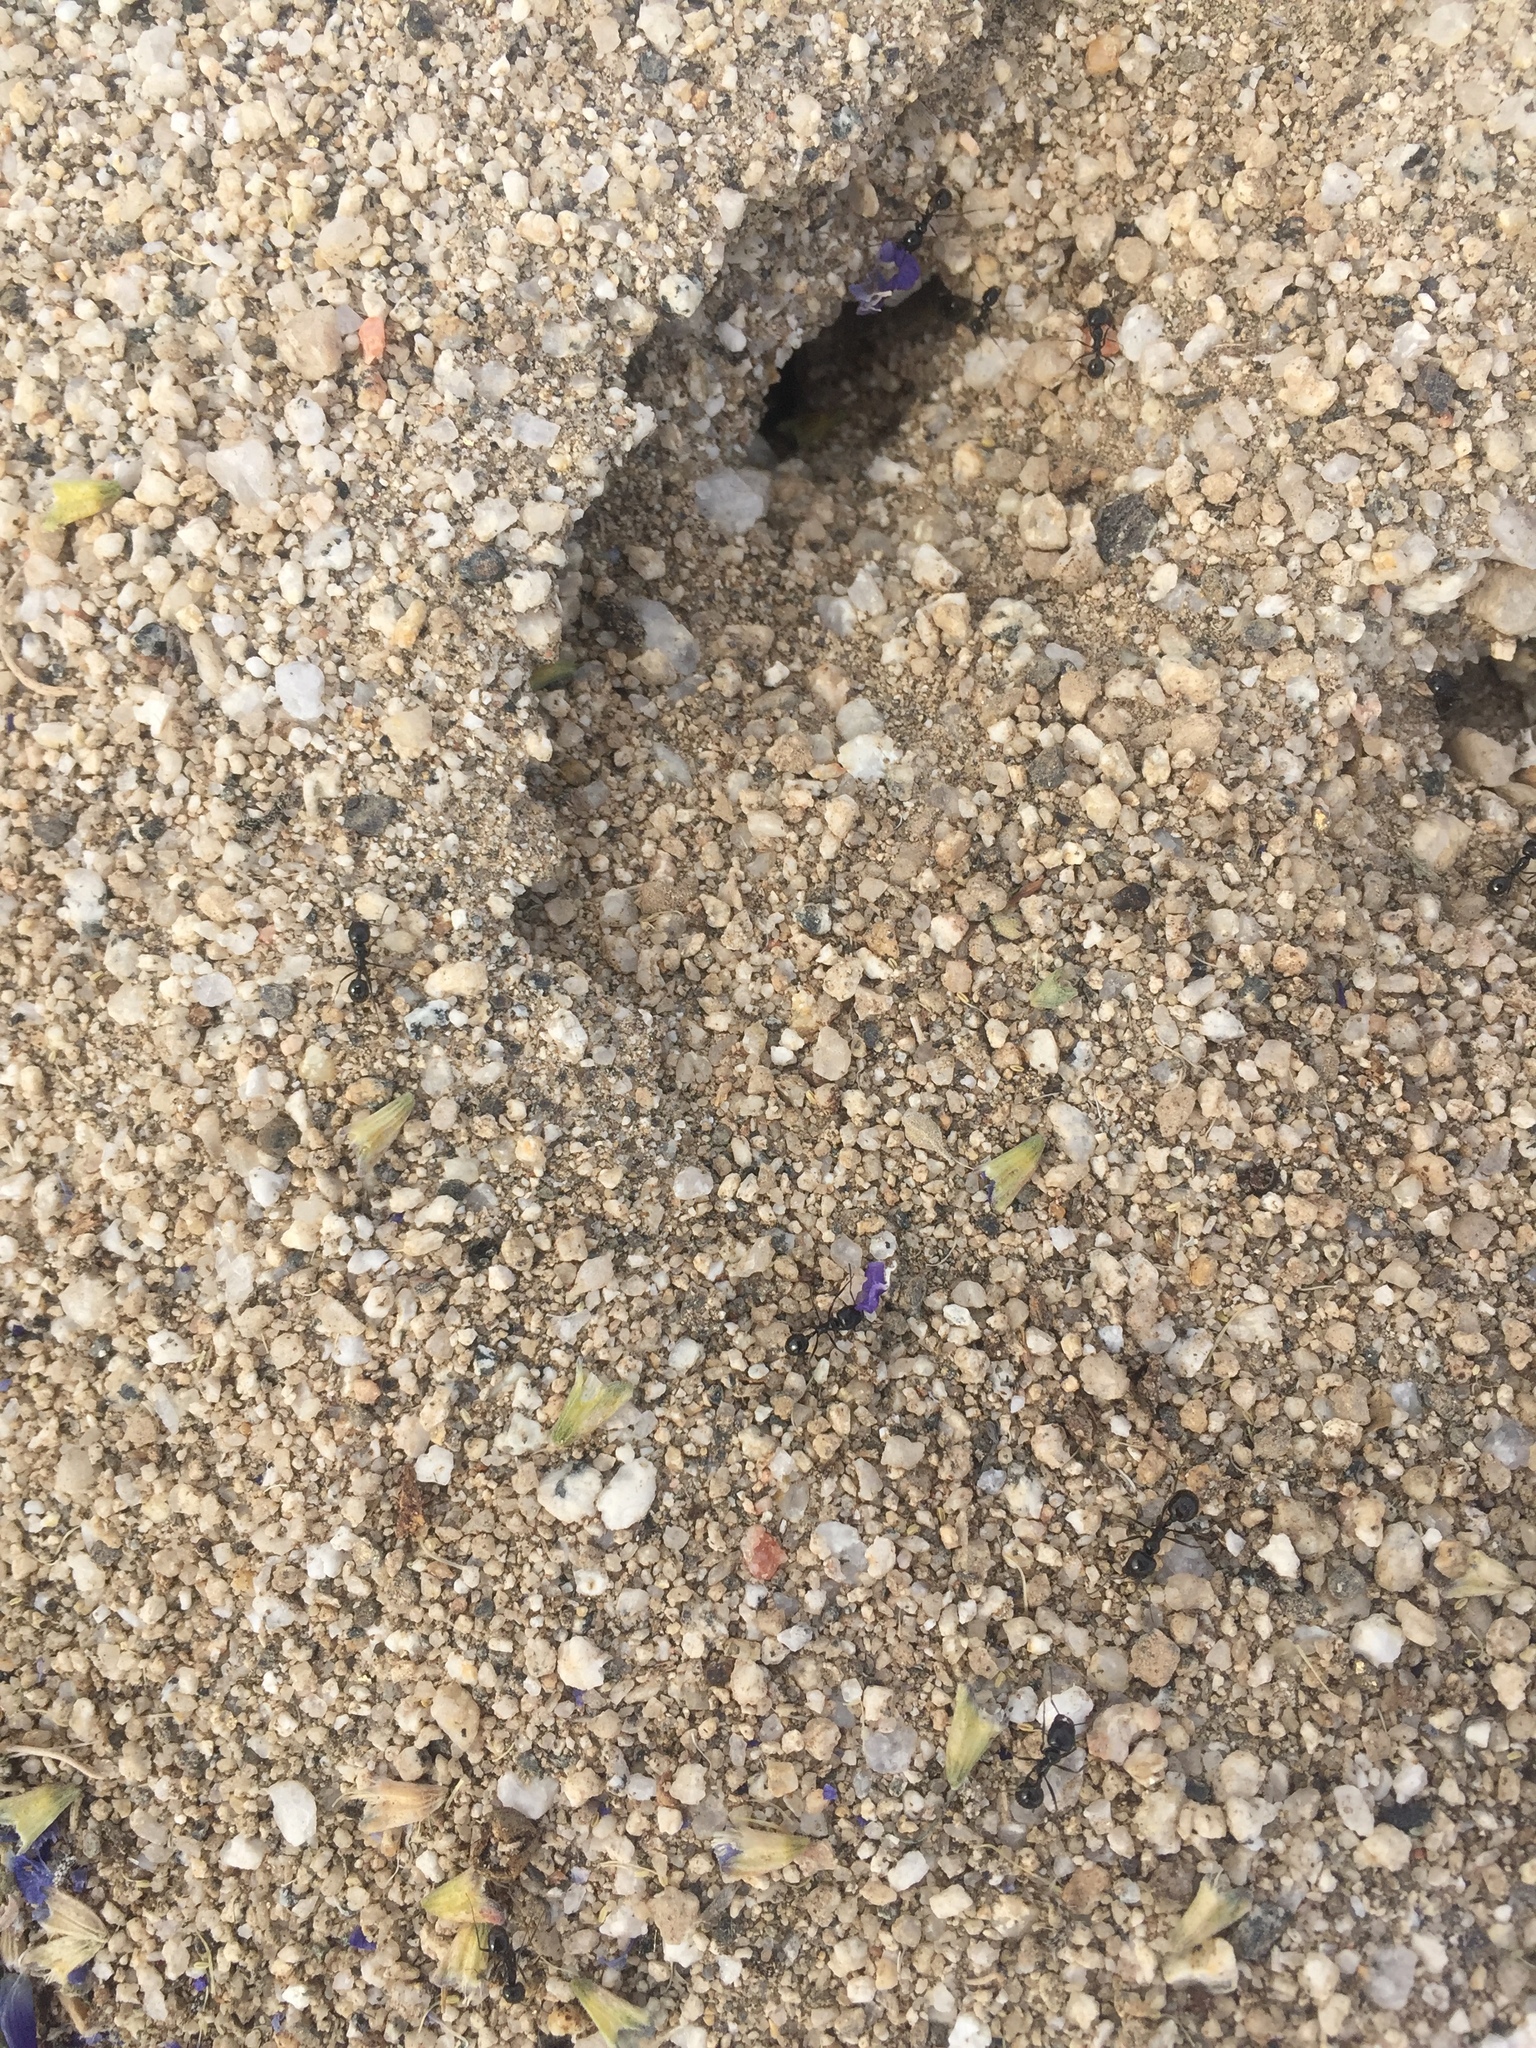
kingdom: Animalia
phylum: Arthropoda
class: Insecta
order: Hymenoptera
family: Formicidae
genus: Messor
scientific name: Messor pergandei
